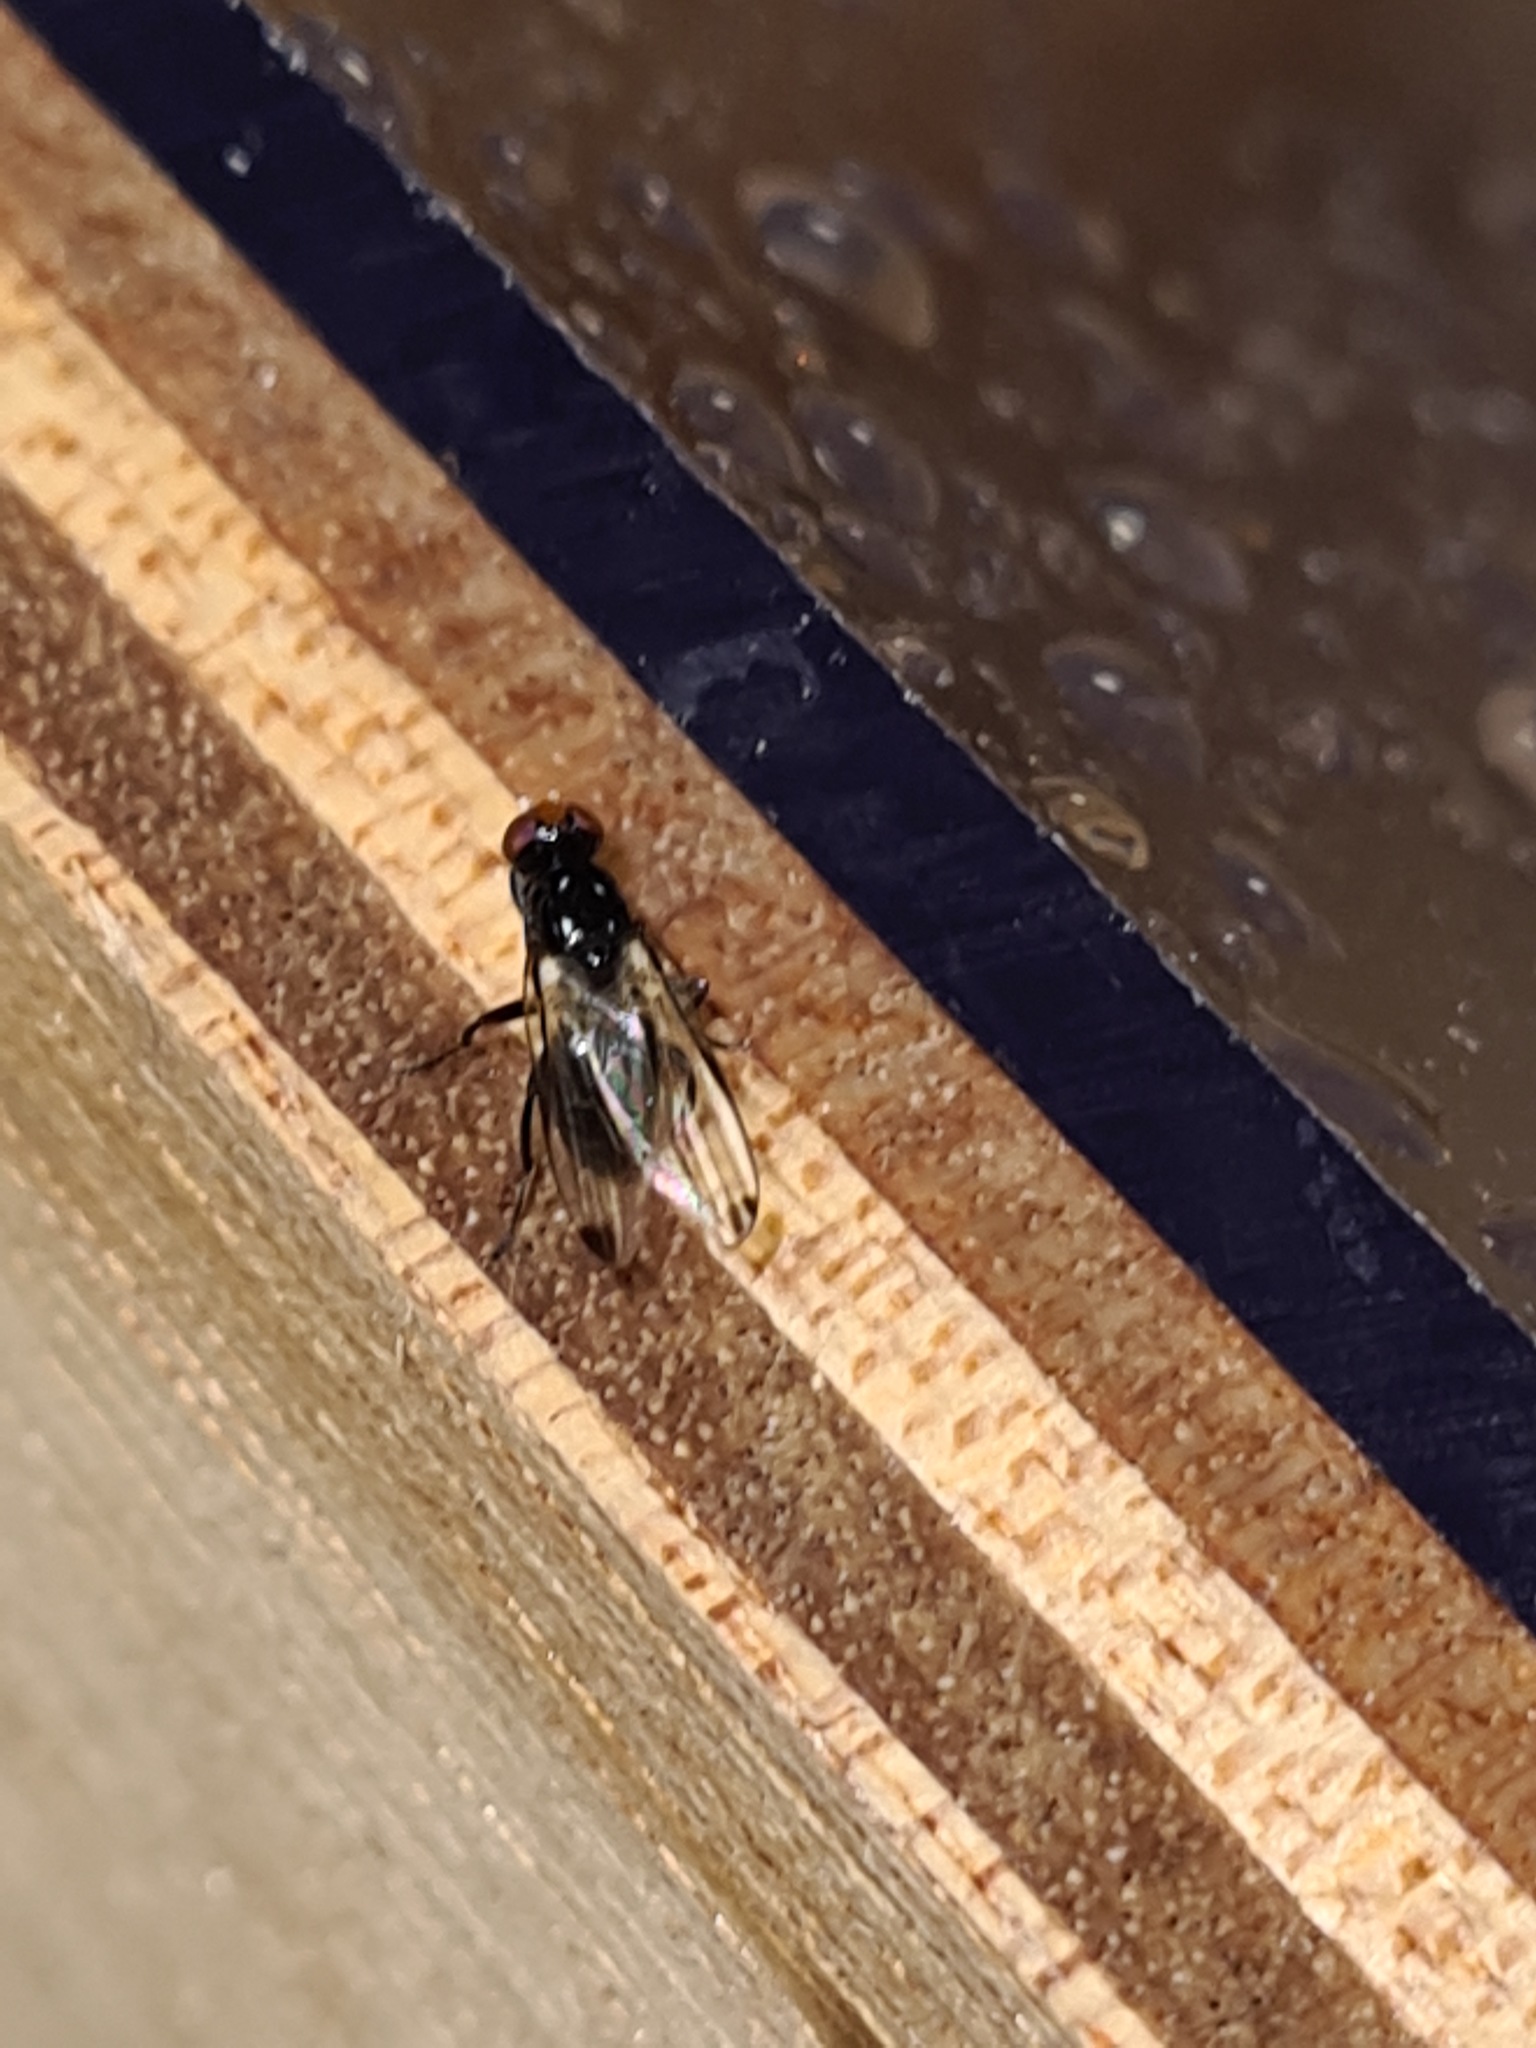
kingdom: Animalia
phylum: Arthropoda
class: Insecta
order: Diptera
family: Ulidiidae
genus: Seioptera
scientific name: Seioptera vibrans
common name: Dark-tipped wingwaver
